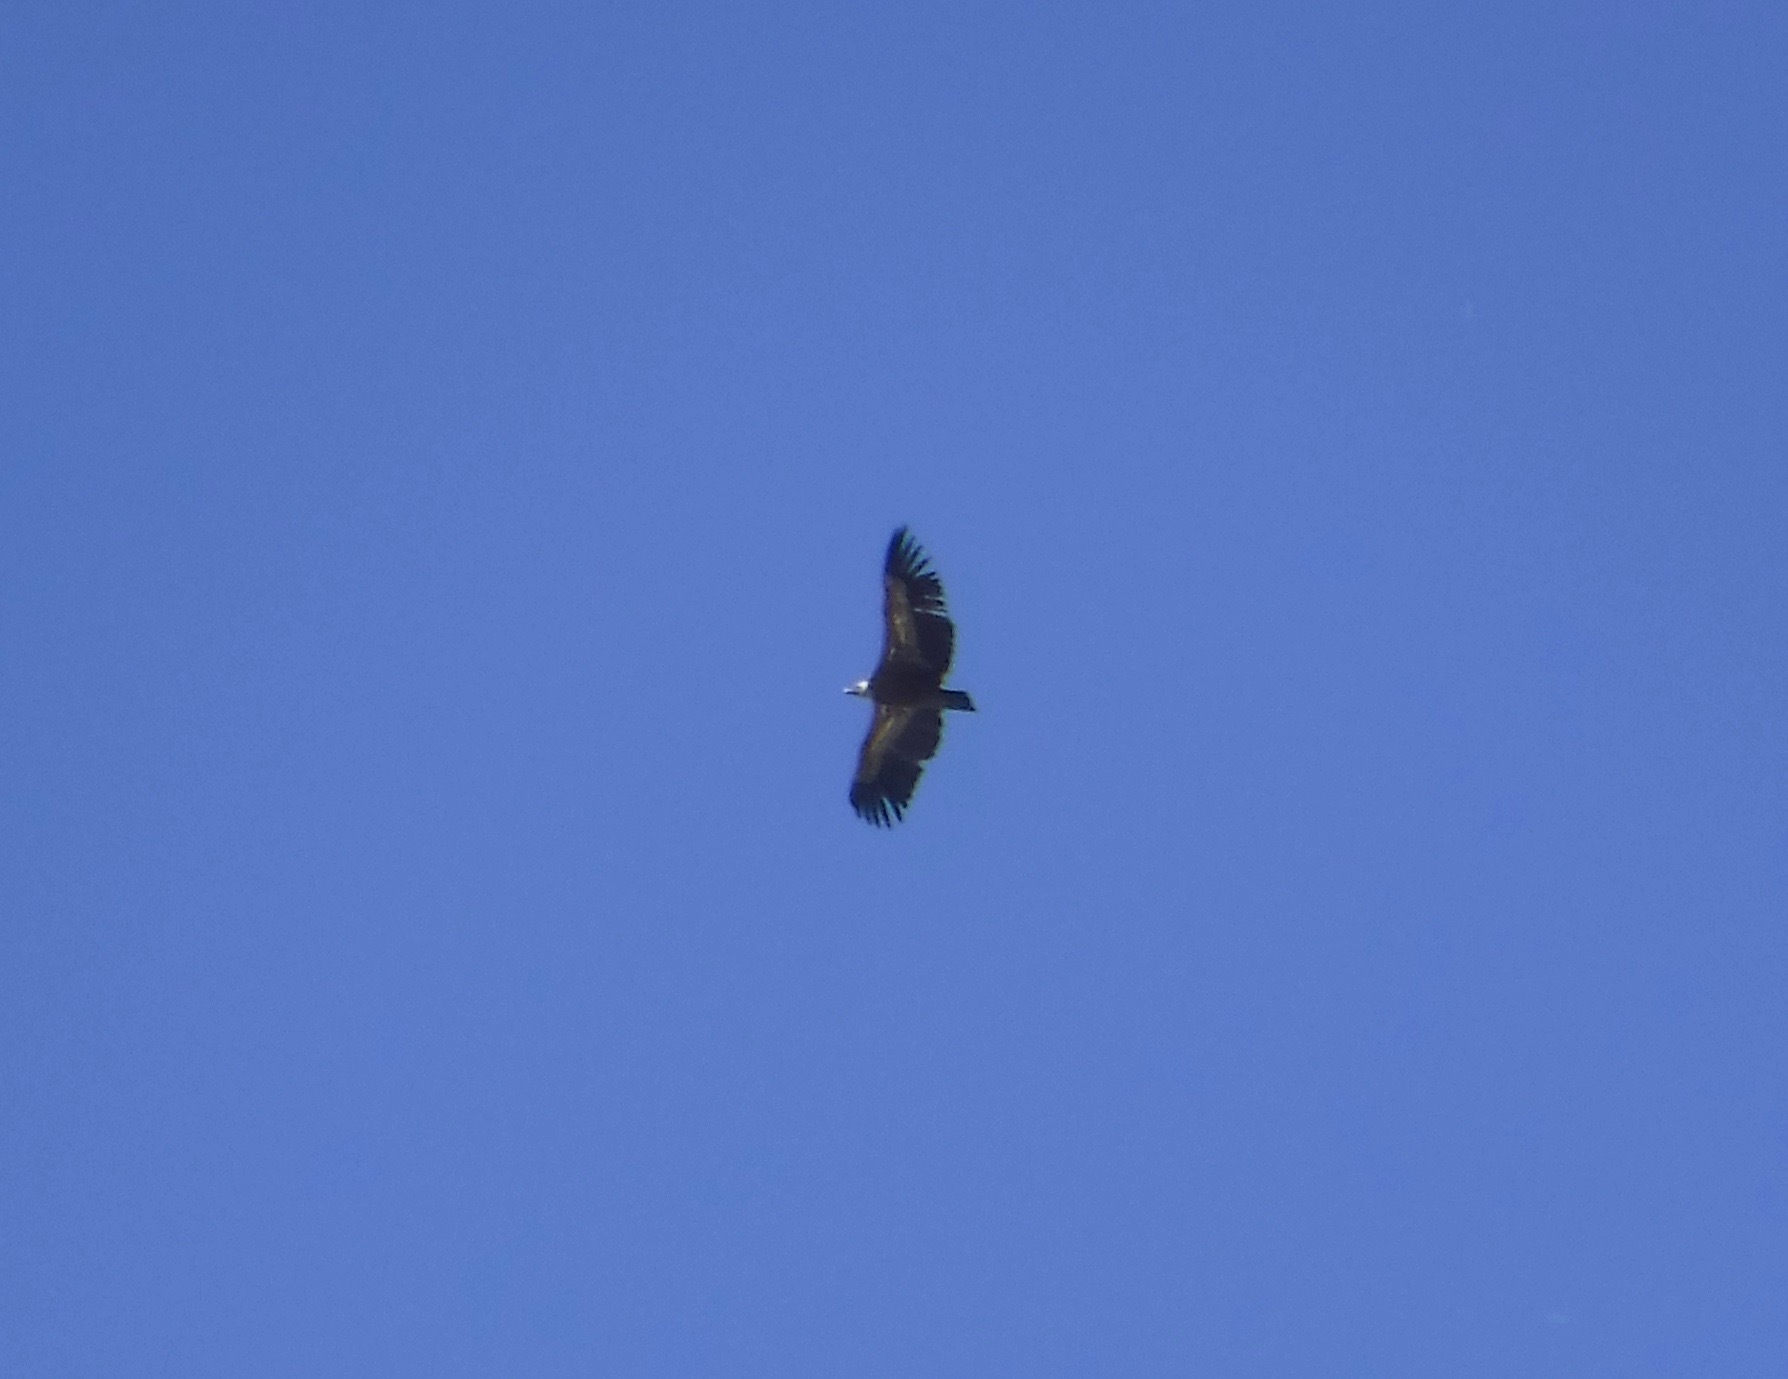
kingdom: Animalia
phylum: Chordata
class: Aves
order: Accipitriformes
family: Accipitridae
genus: Gyps
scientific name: Gyps fulvus
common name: Griffon vulture
